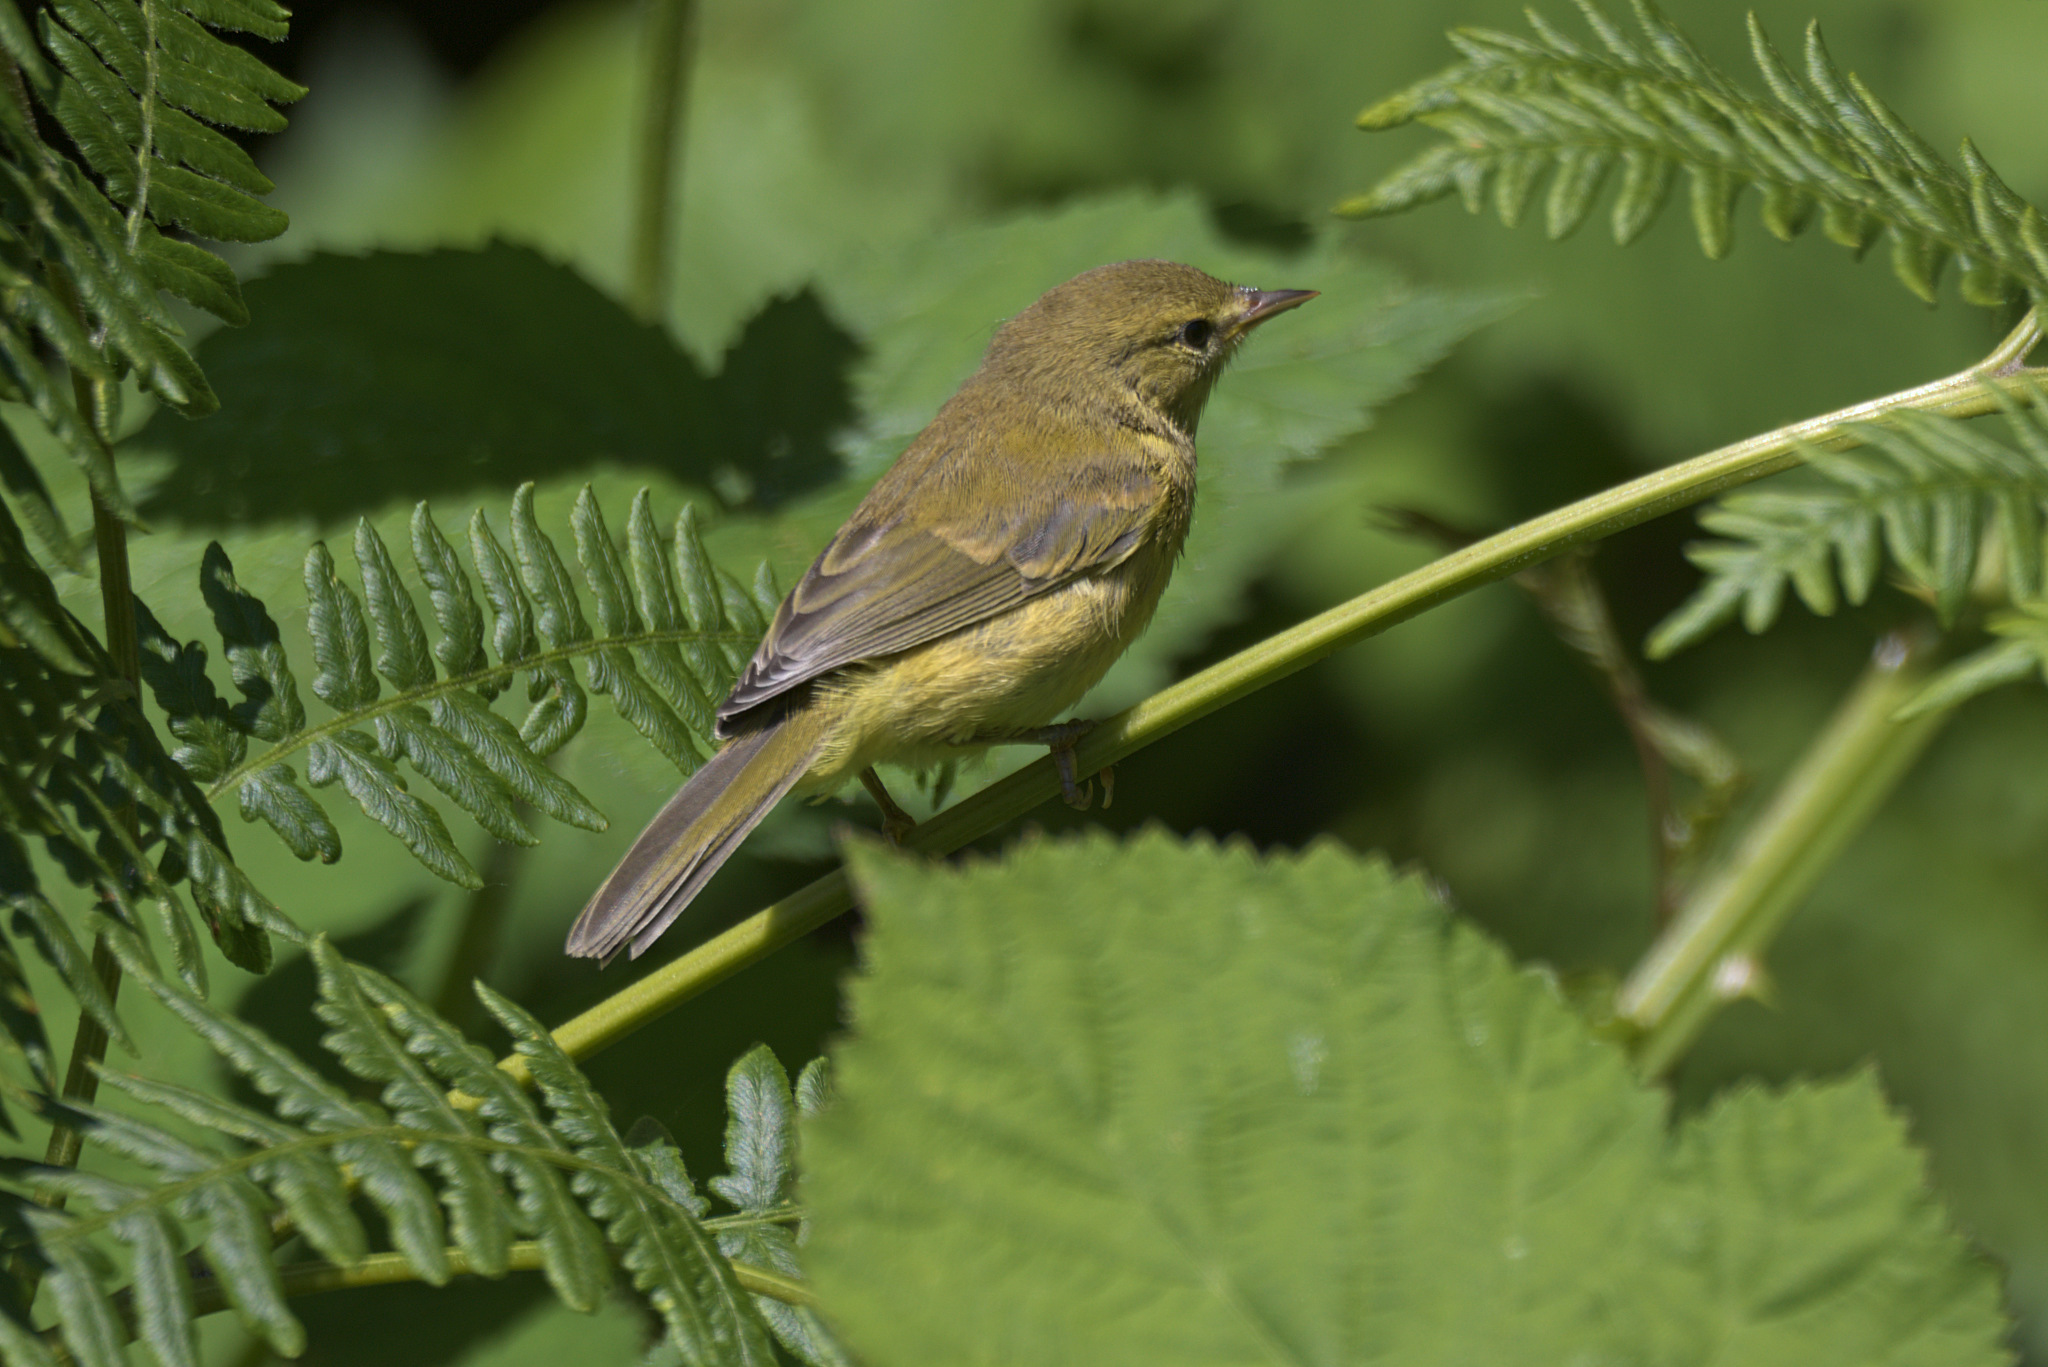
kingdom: Animalia
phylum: Chordata
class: Aves
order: Passeriformes
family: Parulidae
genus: Leiothlypis
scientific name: Leiothlypis celata
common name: Orange-crowned warbler
